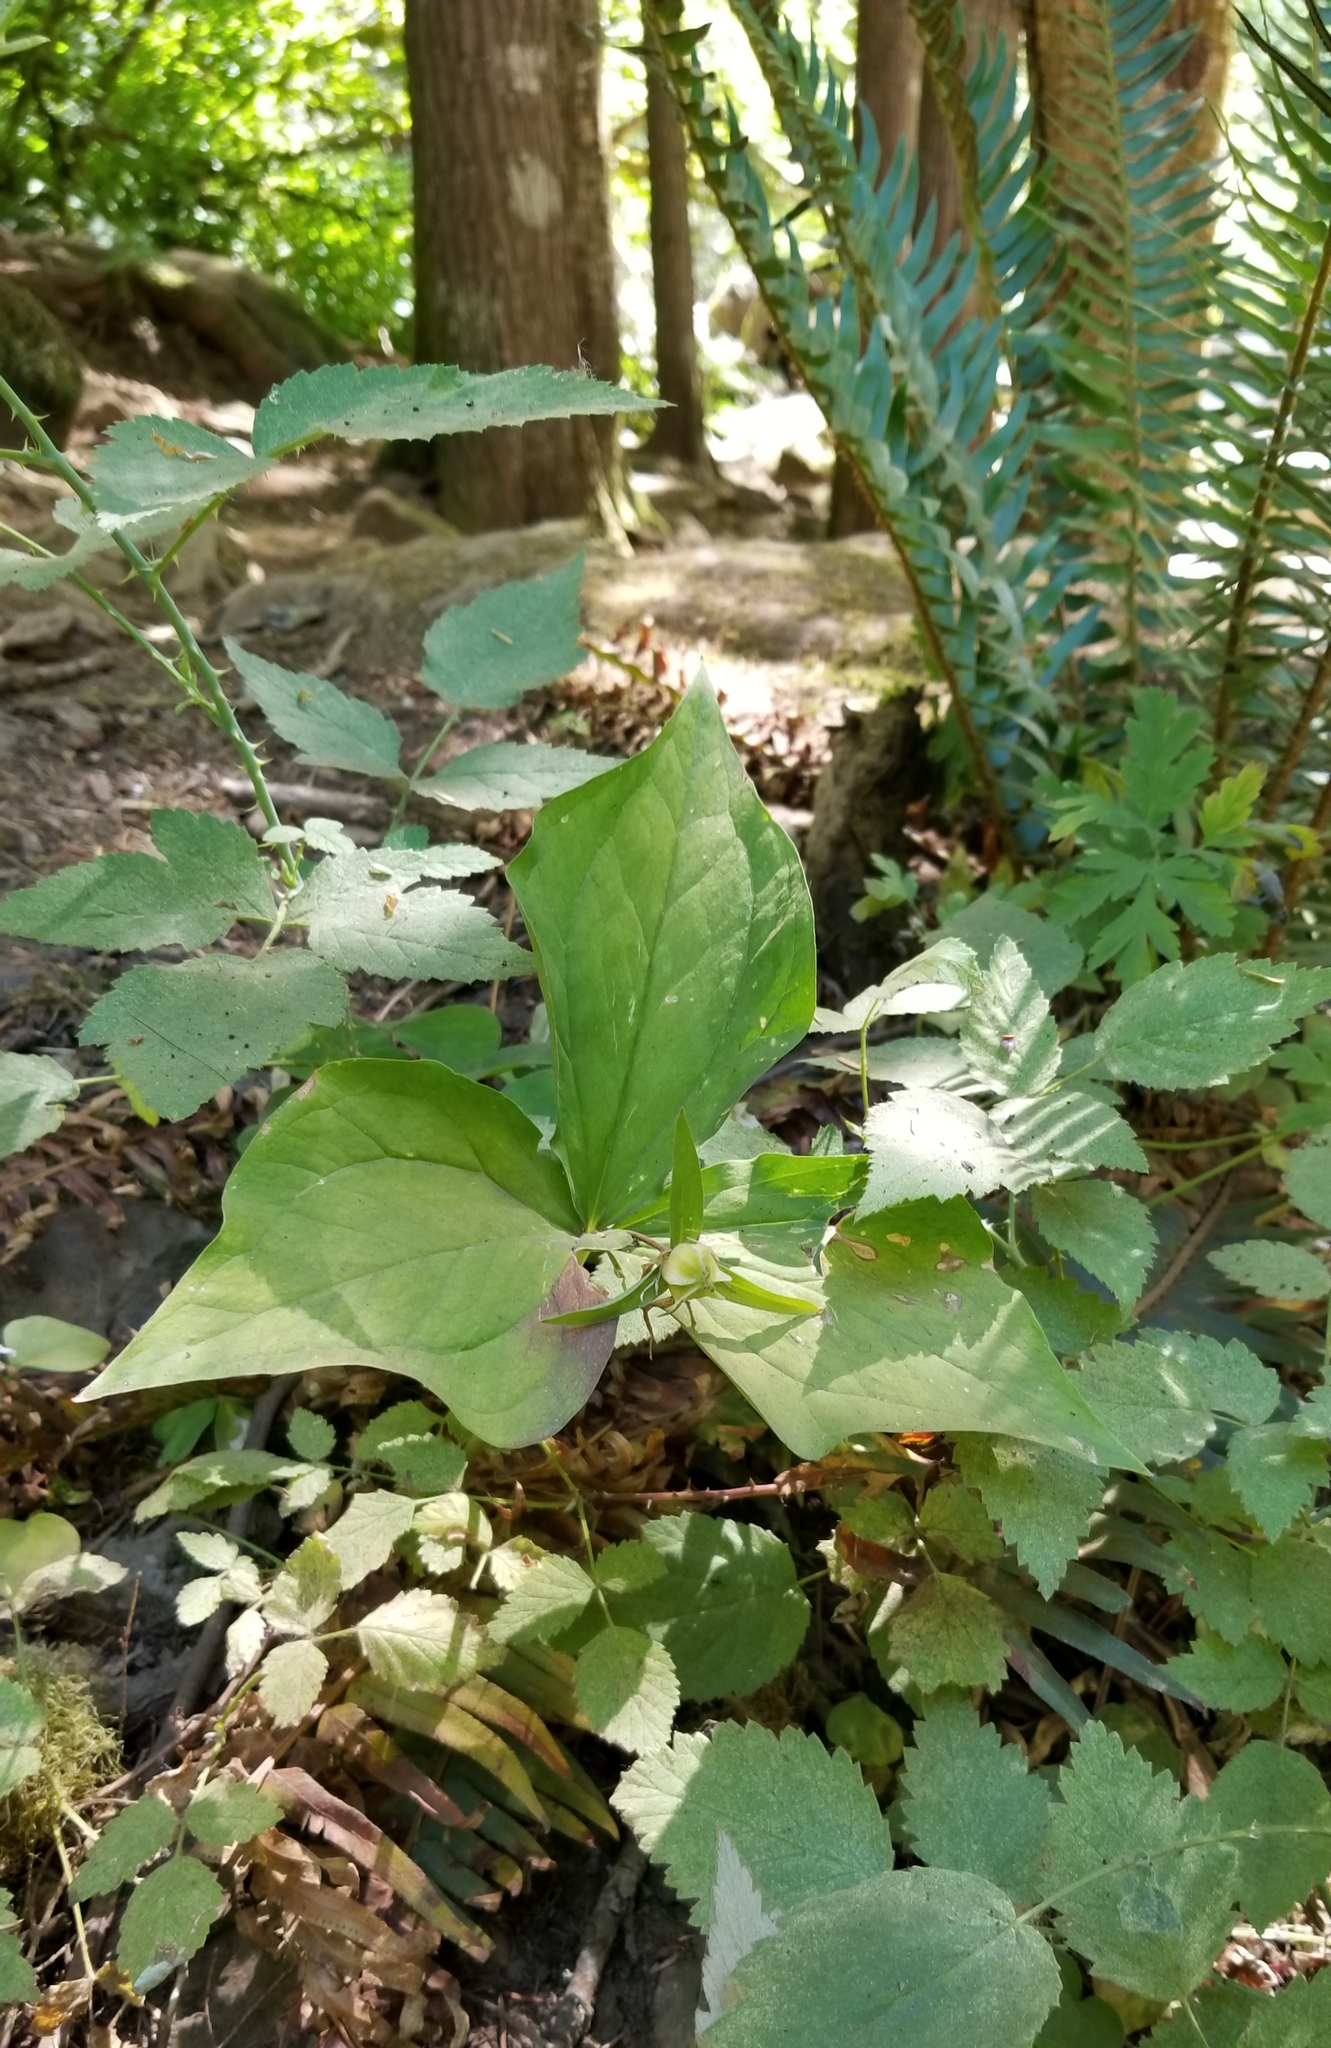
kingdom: Plantae
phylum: Tracheophyta
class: Liliopsida
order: Liliales
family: Melanthiaceae
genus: Trillium
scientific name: Trillium ovatum
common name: Pacific trillium
